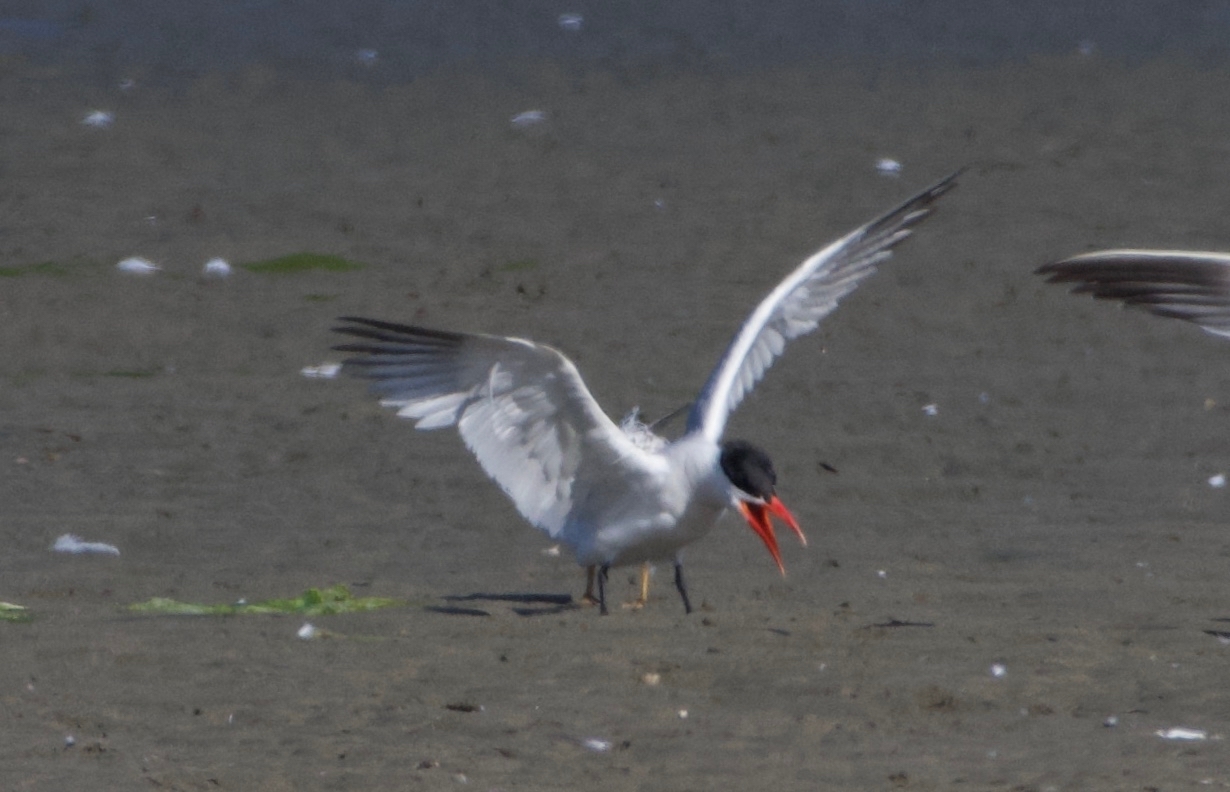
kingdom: Animalia
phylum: Chordata
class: Aves
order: Charadriiformes
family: Laridae
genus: Hydroprogne
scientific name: Hydroprogne caspia
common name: Caspian tern
